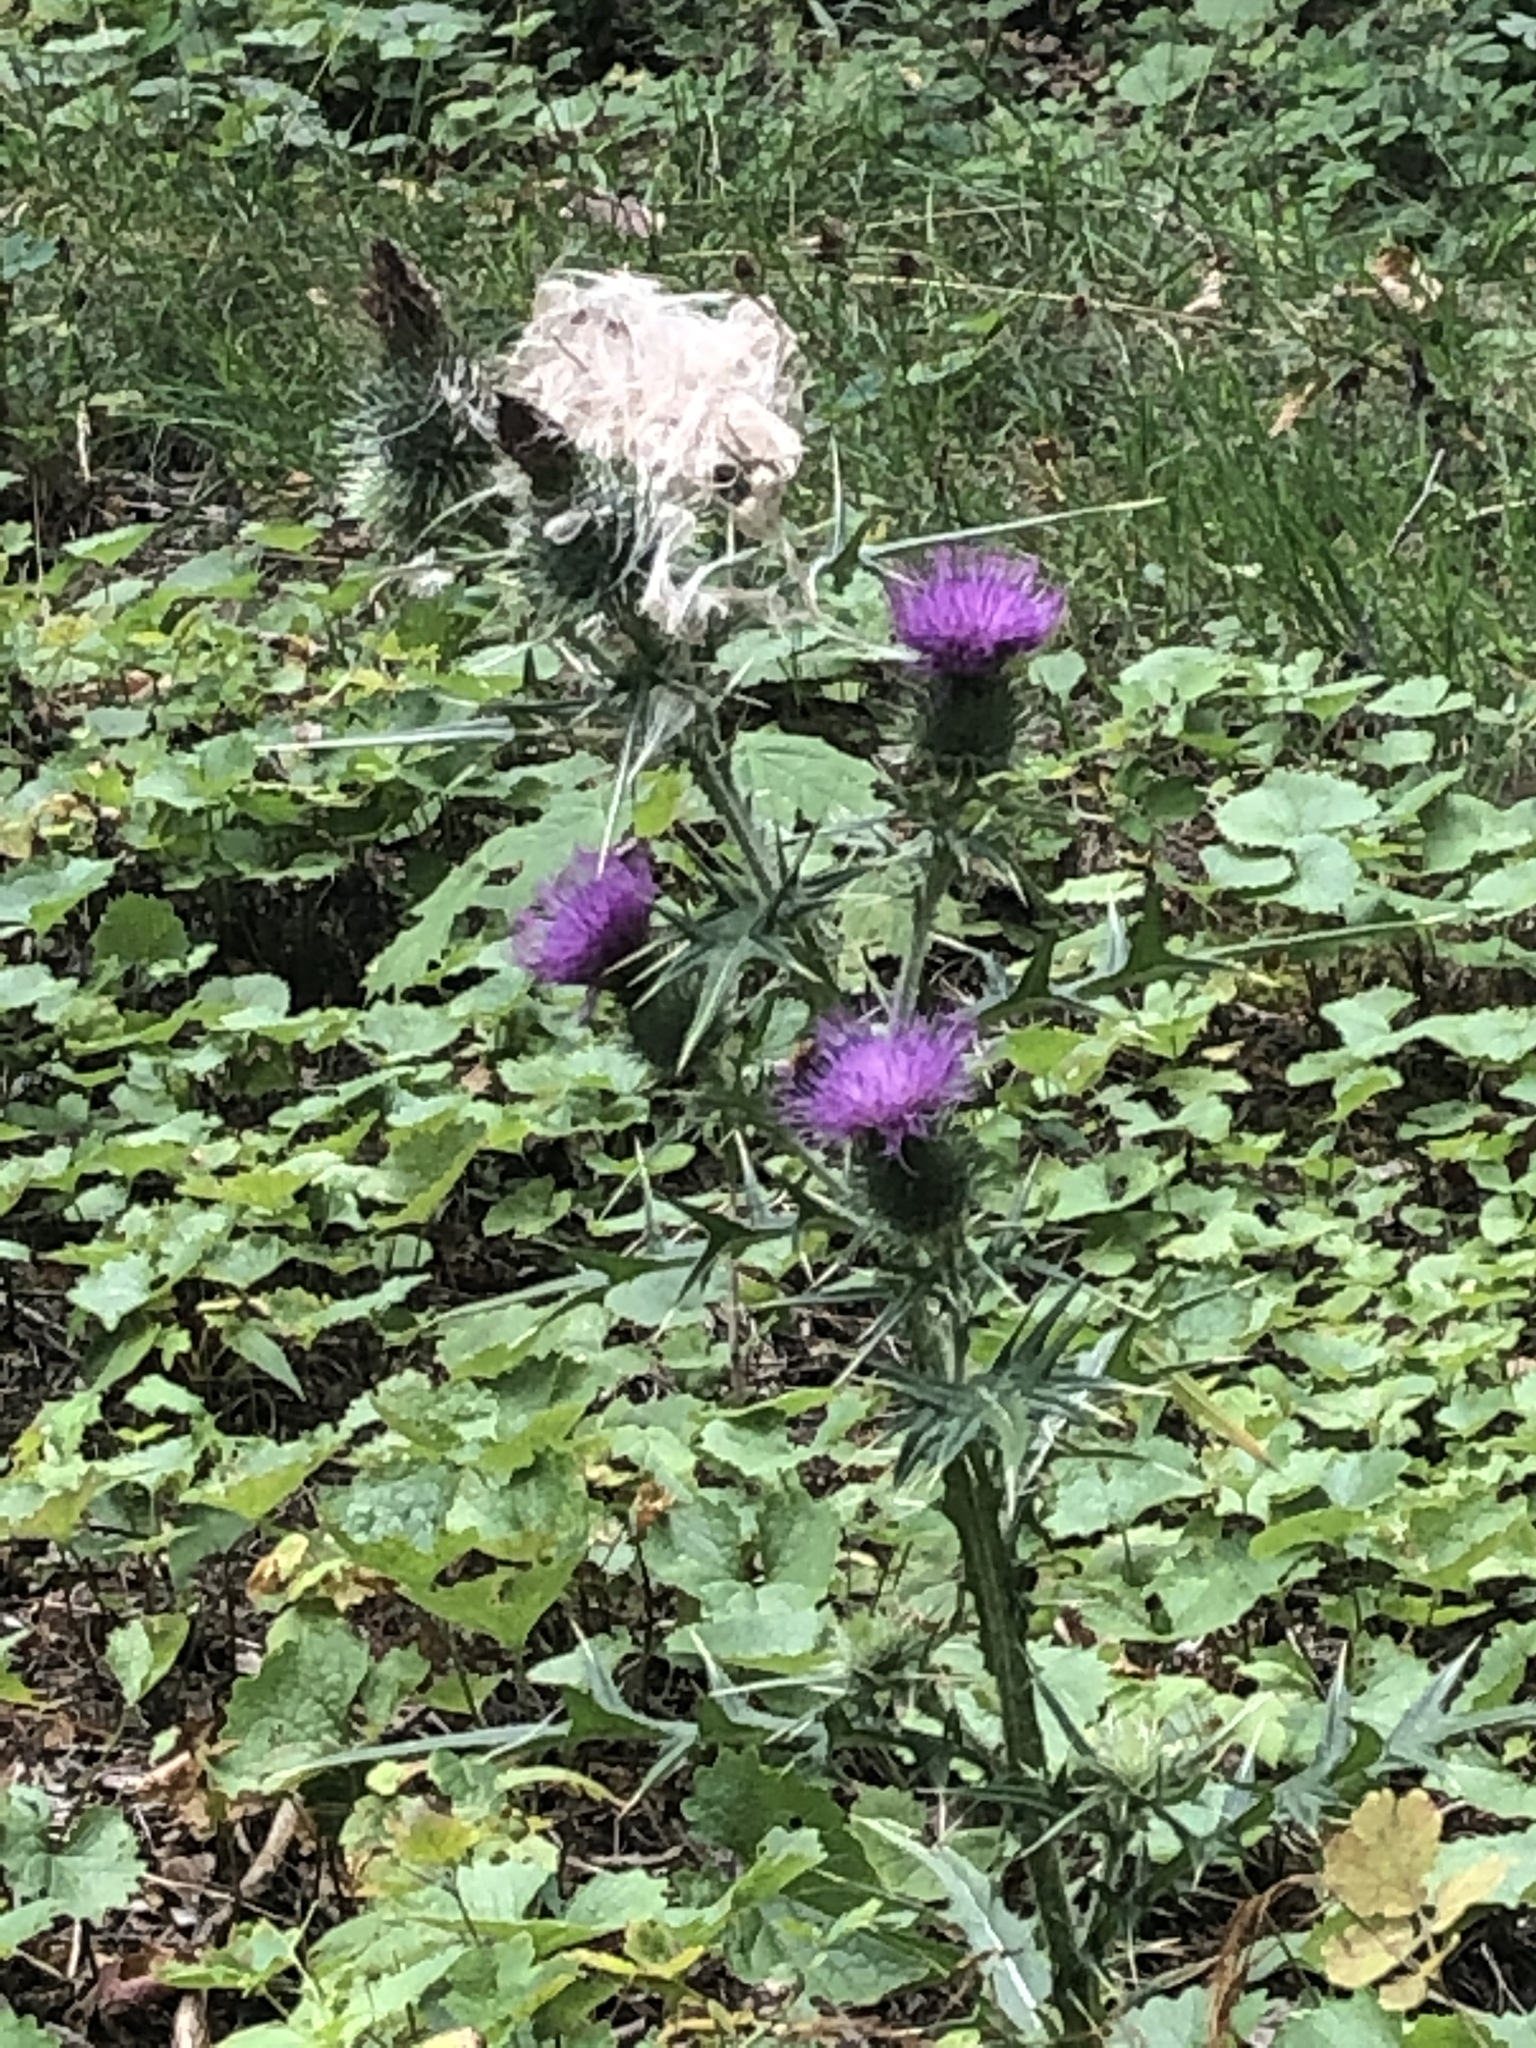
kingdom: Plantae
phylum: Tracheophyta
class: Magnoliopsida
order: Asterales
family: Asteraceae
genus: Cirsium
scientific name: Cirsium vulgare
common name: Bull thistle
